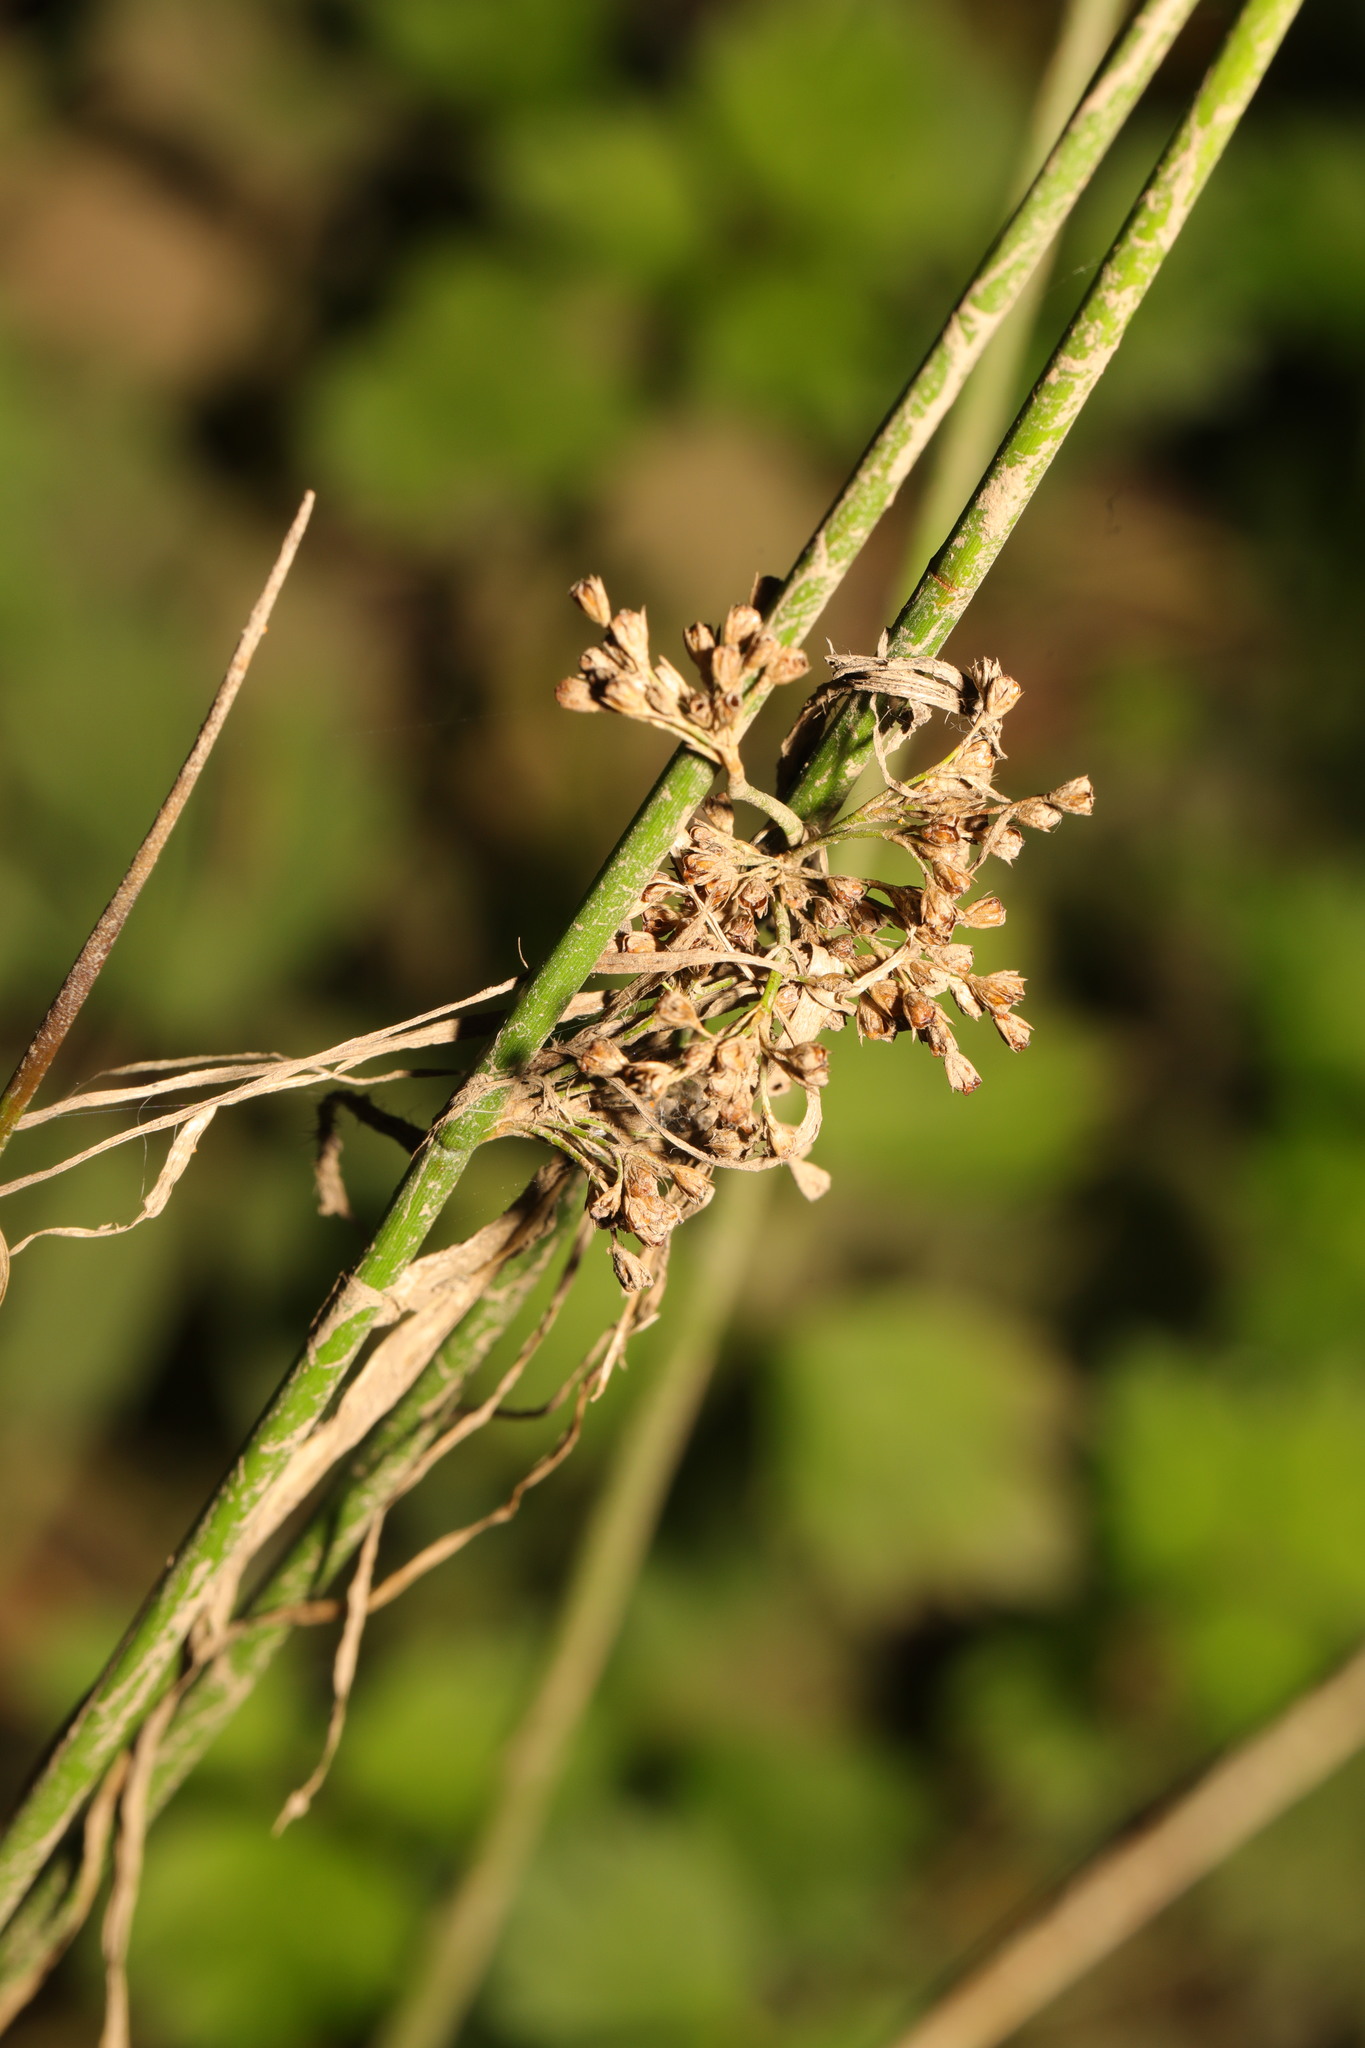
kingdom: Plantae
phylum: Tracheophyta
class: Liliopsida
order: Poales
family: Juncaceae
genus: Juncus
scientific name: Juncus effusus
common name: Soft rush
